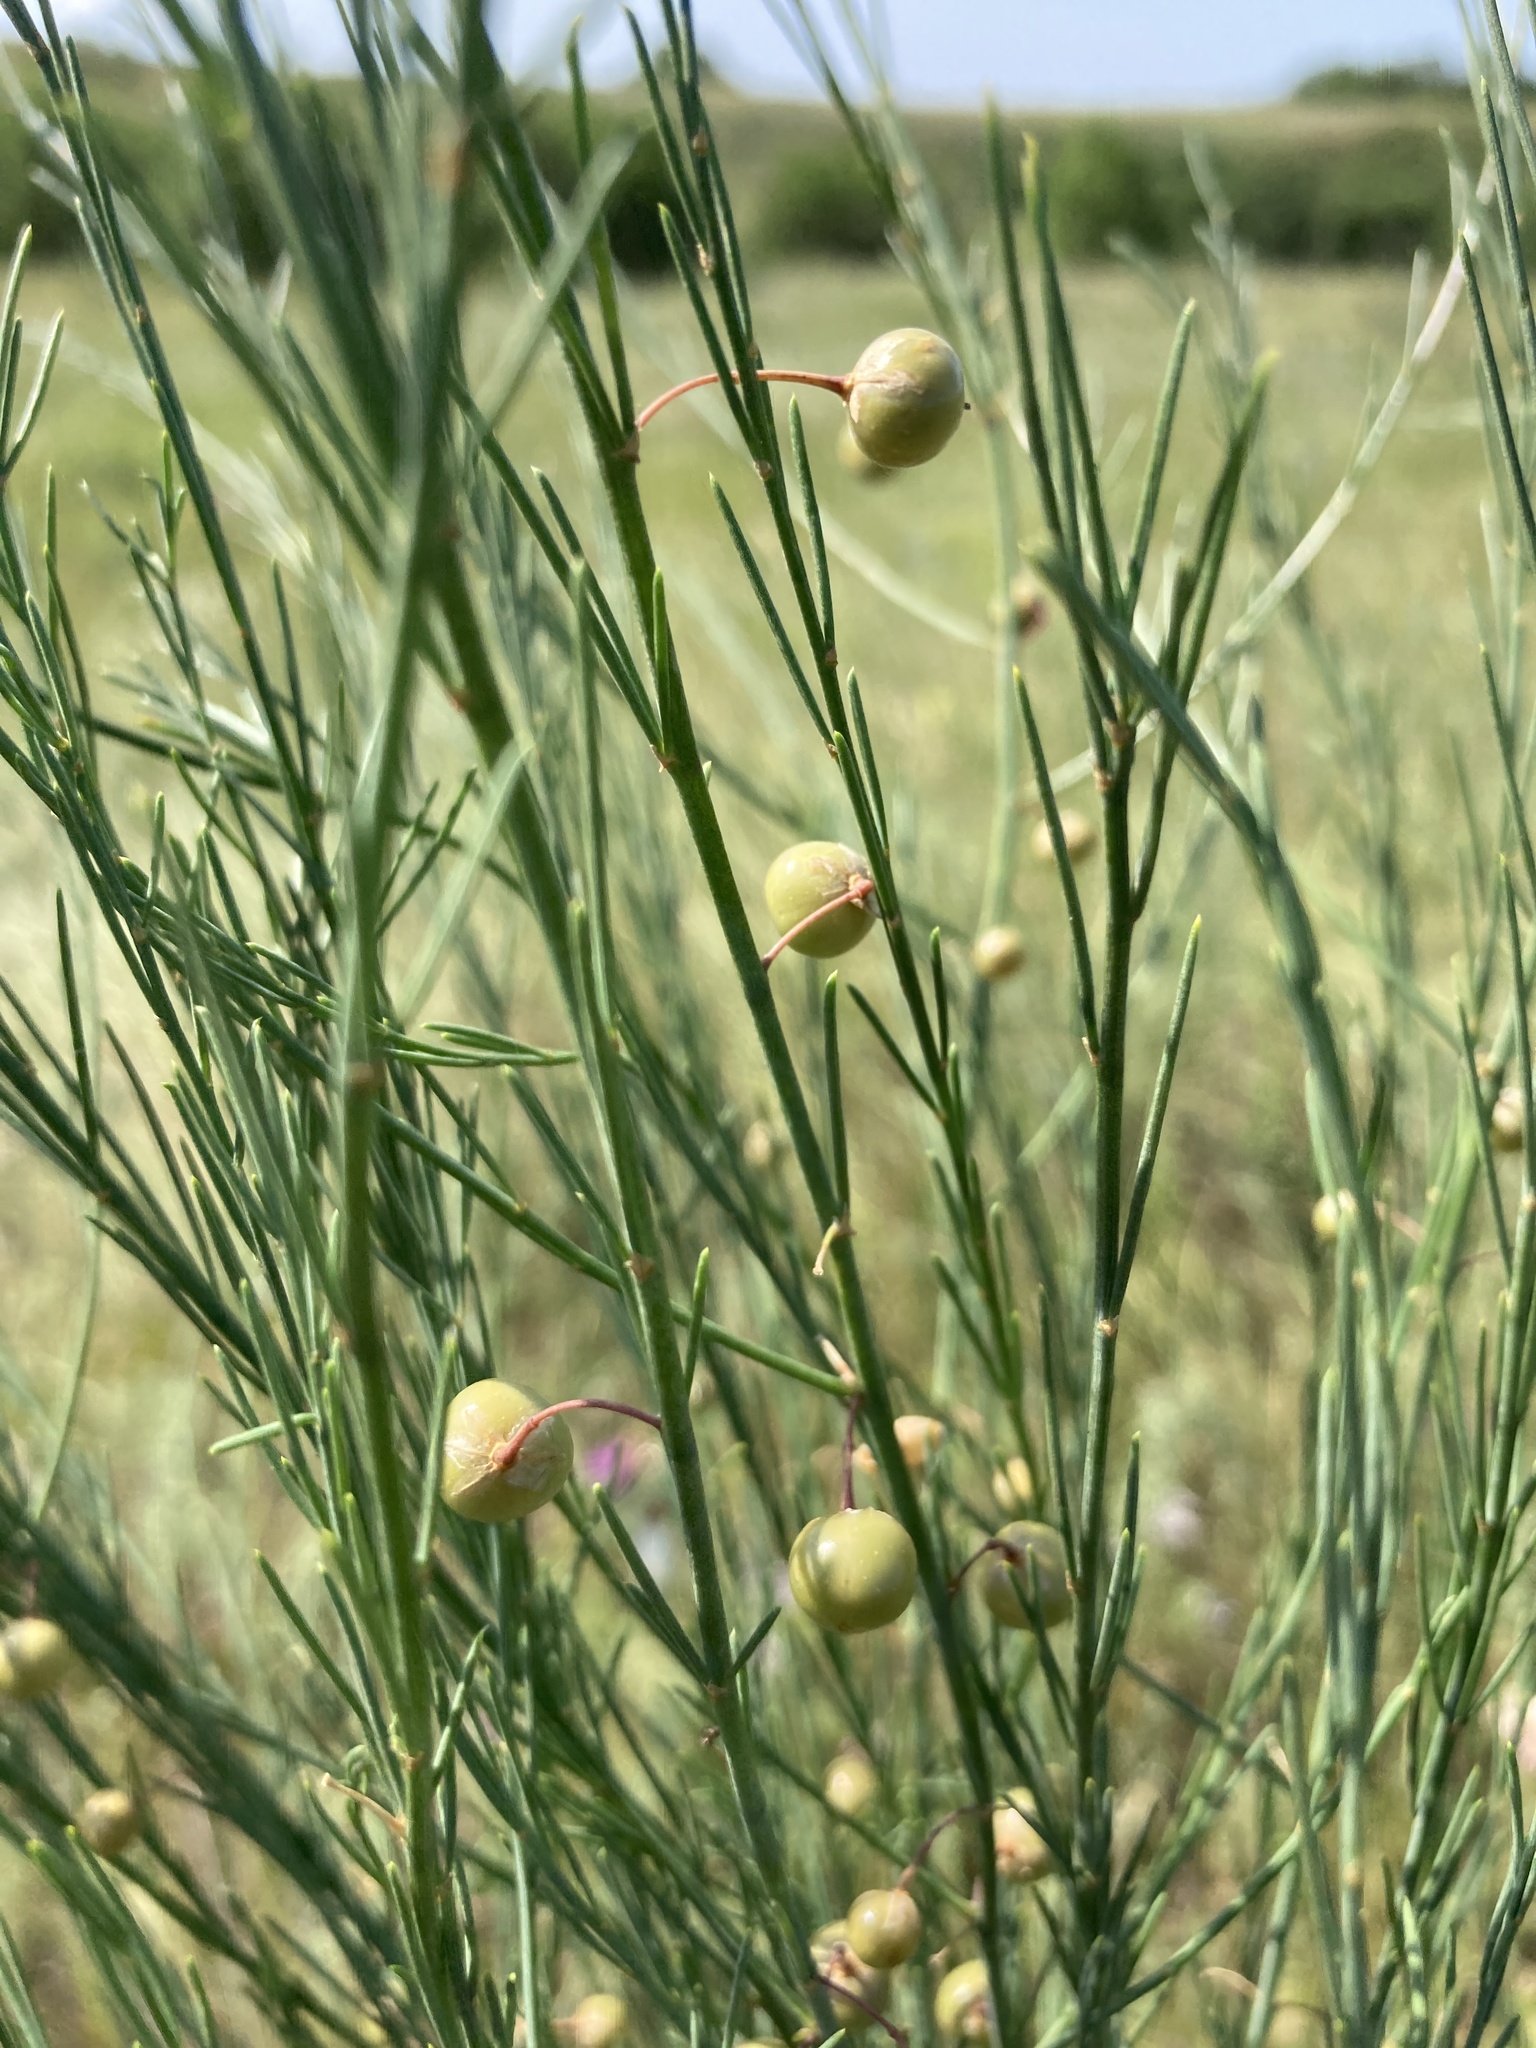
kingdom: Plantae
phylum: Tracheophyta
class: Liliopsida
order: Asparagales
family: Asparagaceae
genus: Asparagus
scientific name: Asparagus officinalis
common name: Garden asparagus
